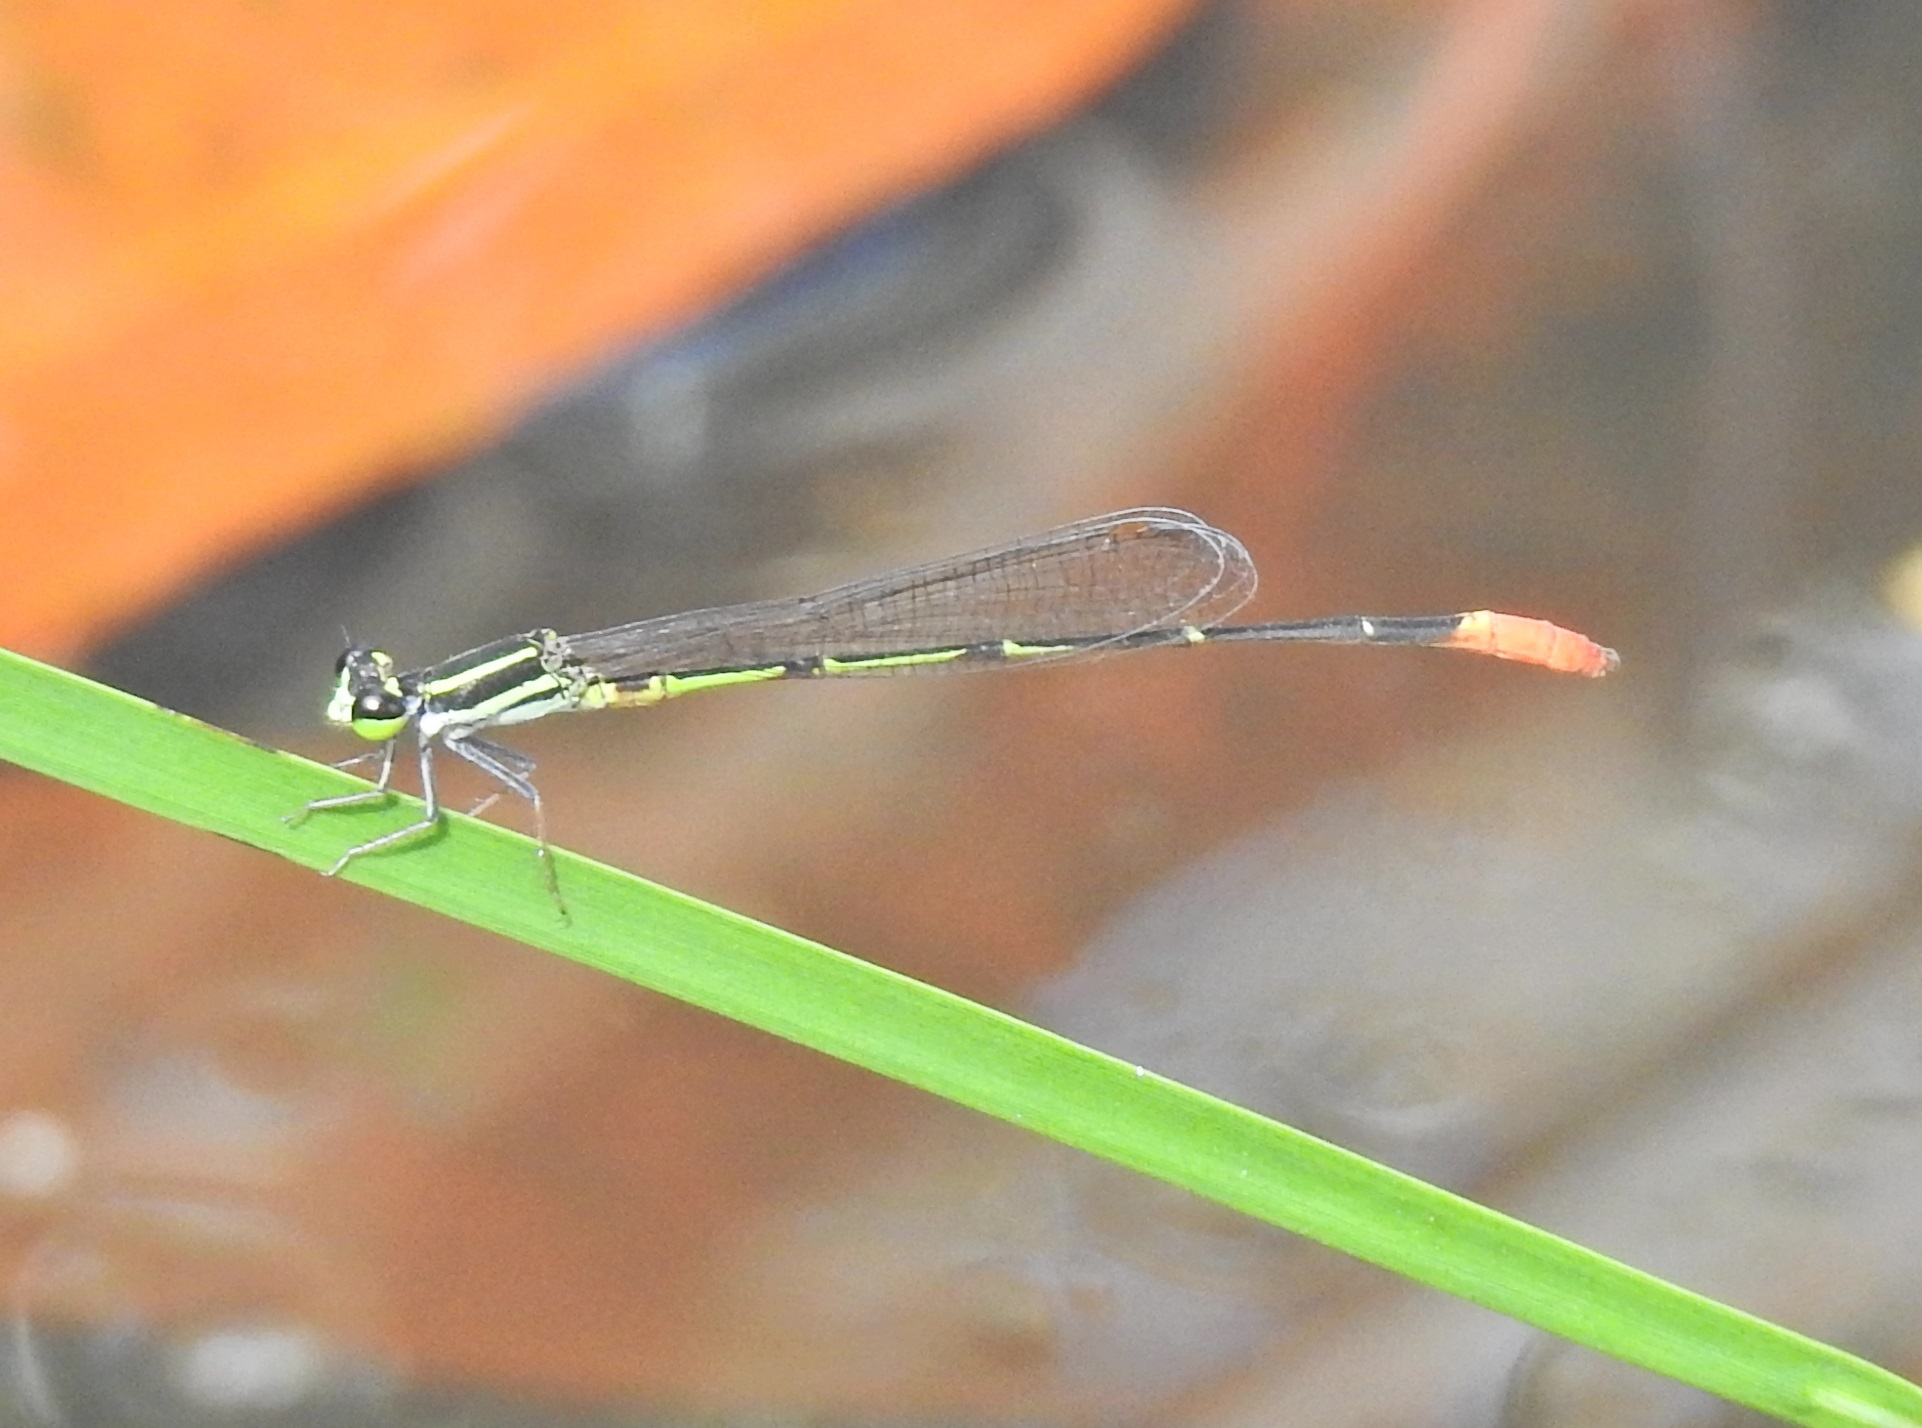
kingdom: Animalia
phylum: Arthropoda
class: Insecta
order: Odonata
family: Coenagrionidae
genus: Argiocnemis
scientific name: Argiocnemis rubescens
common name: Red-tipped shadefly
